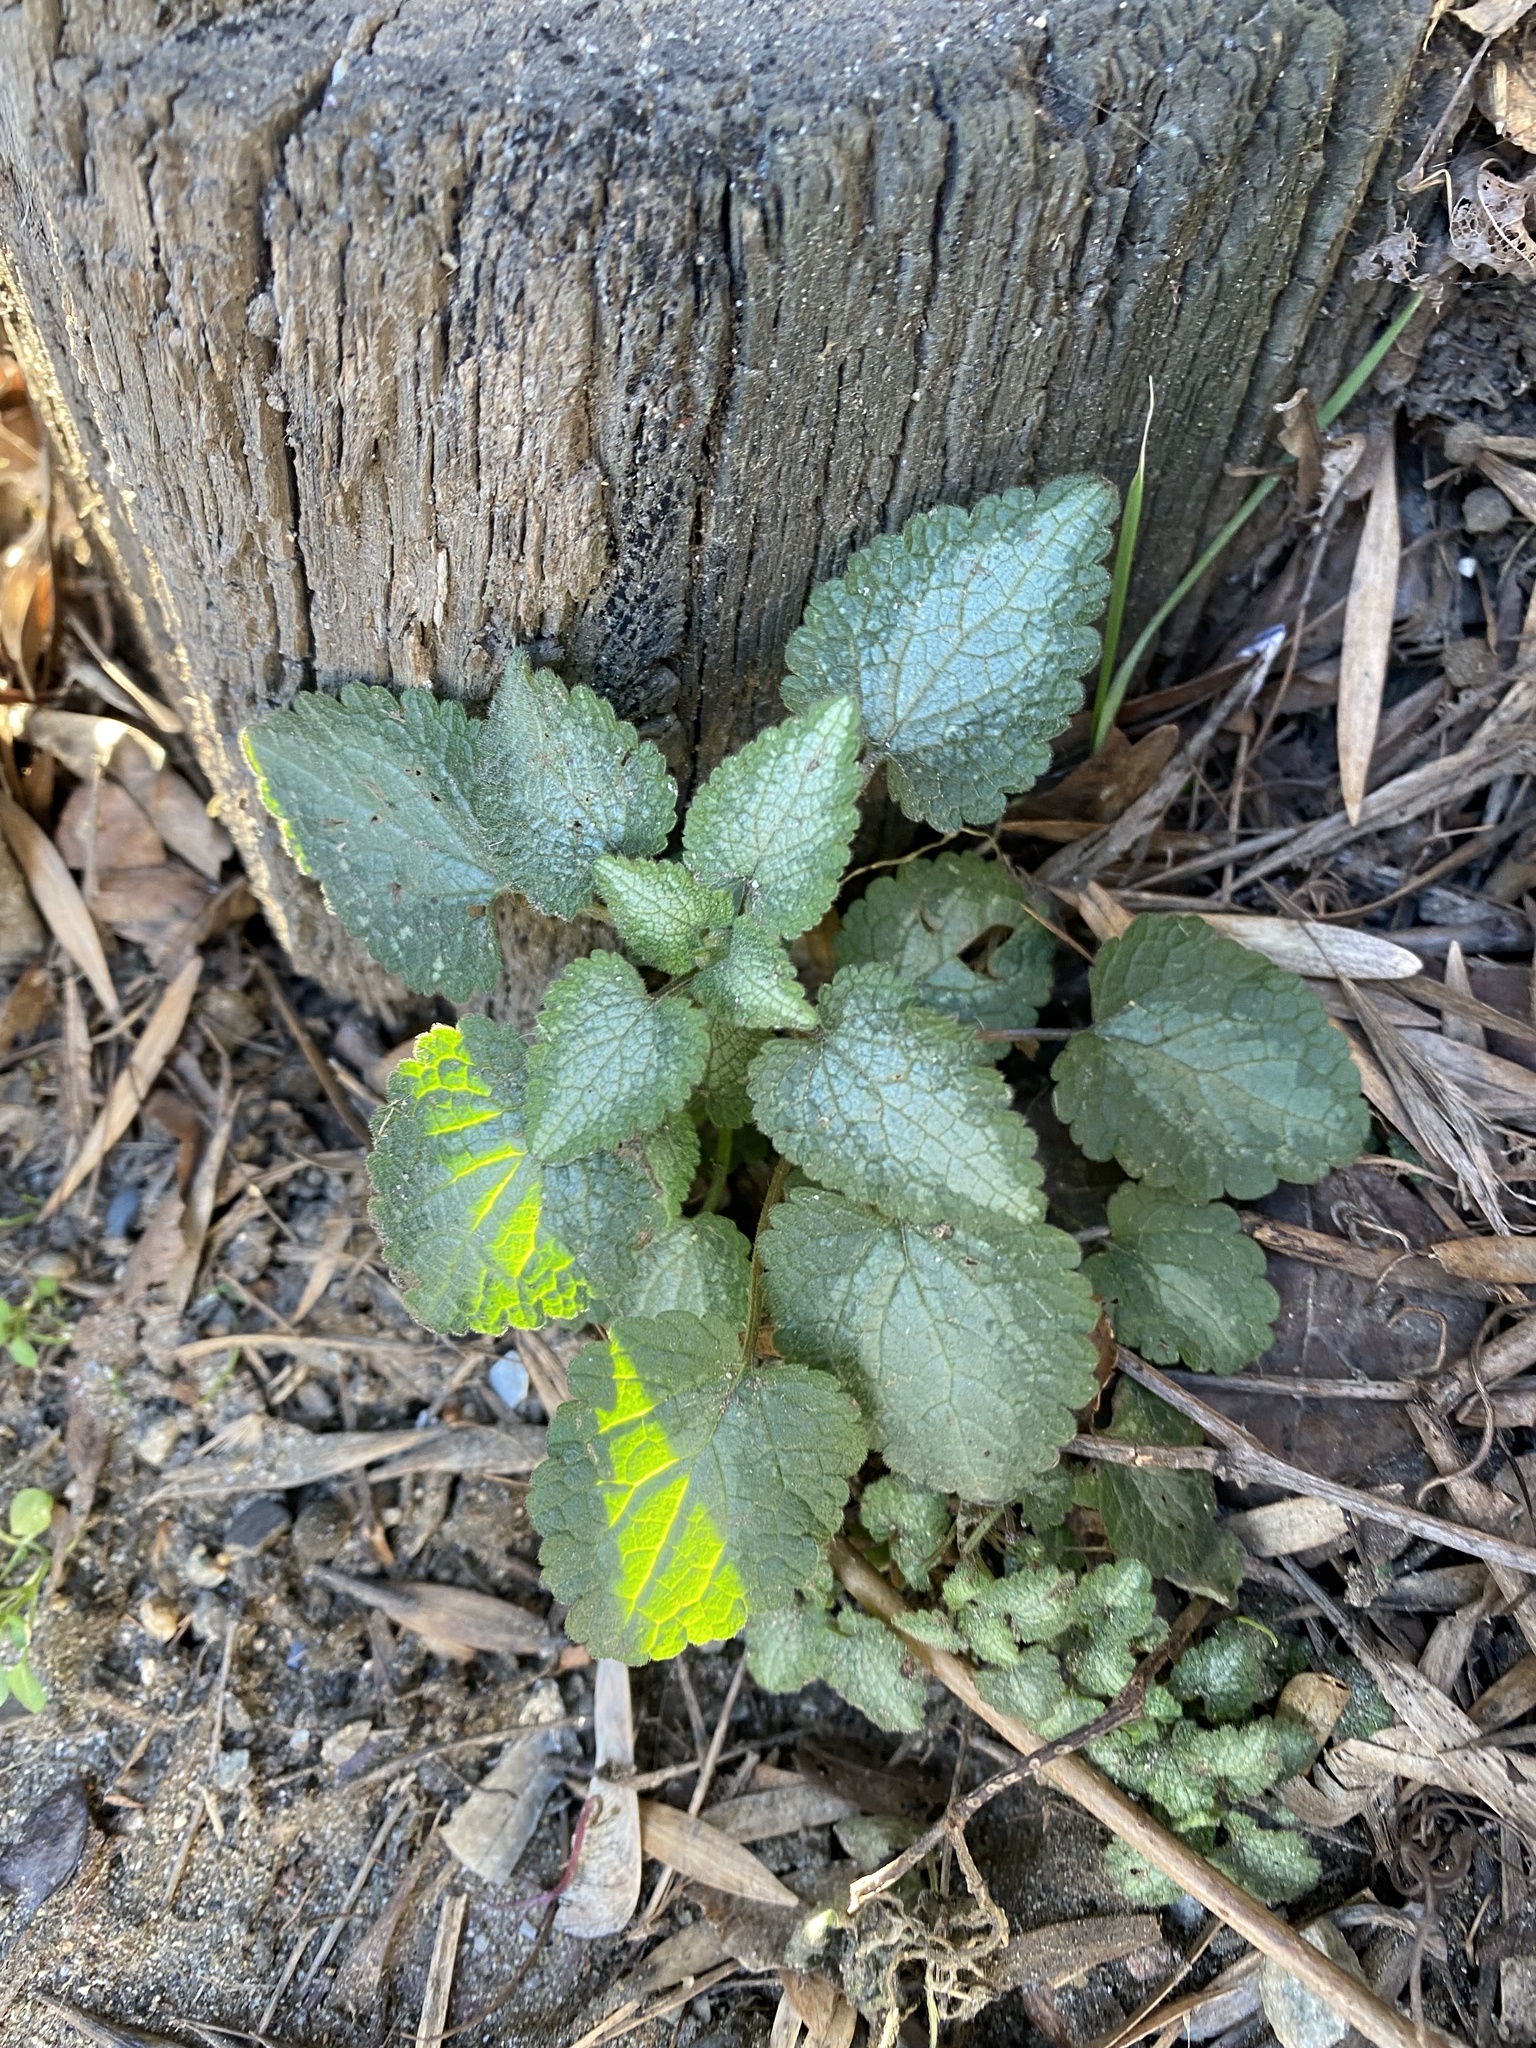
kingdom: Plantae
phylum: Tracheophyta
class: Magnoliopsida
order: Lamiales
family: Lamiaceae
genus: Lamium
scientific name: Lamium maculatum
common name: Spotted dead-nettle
